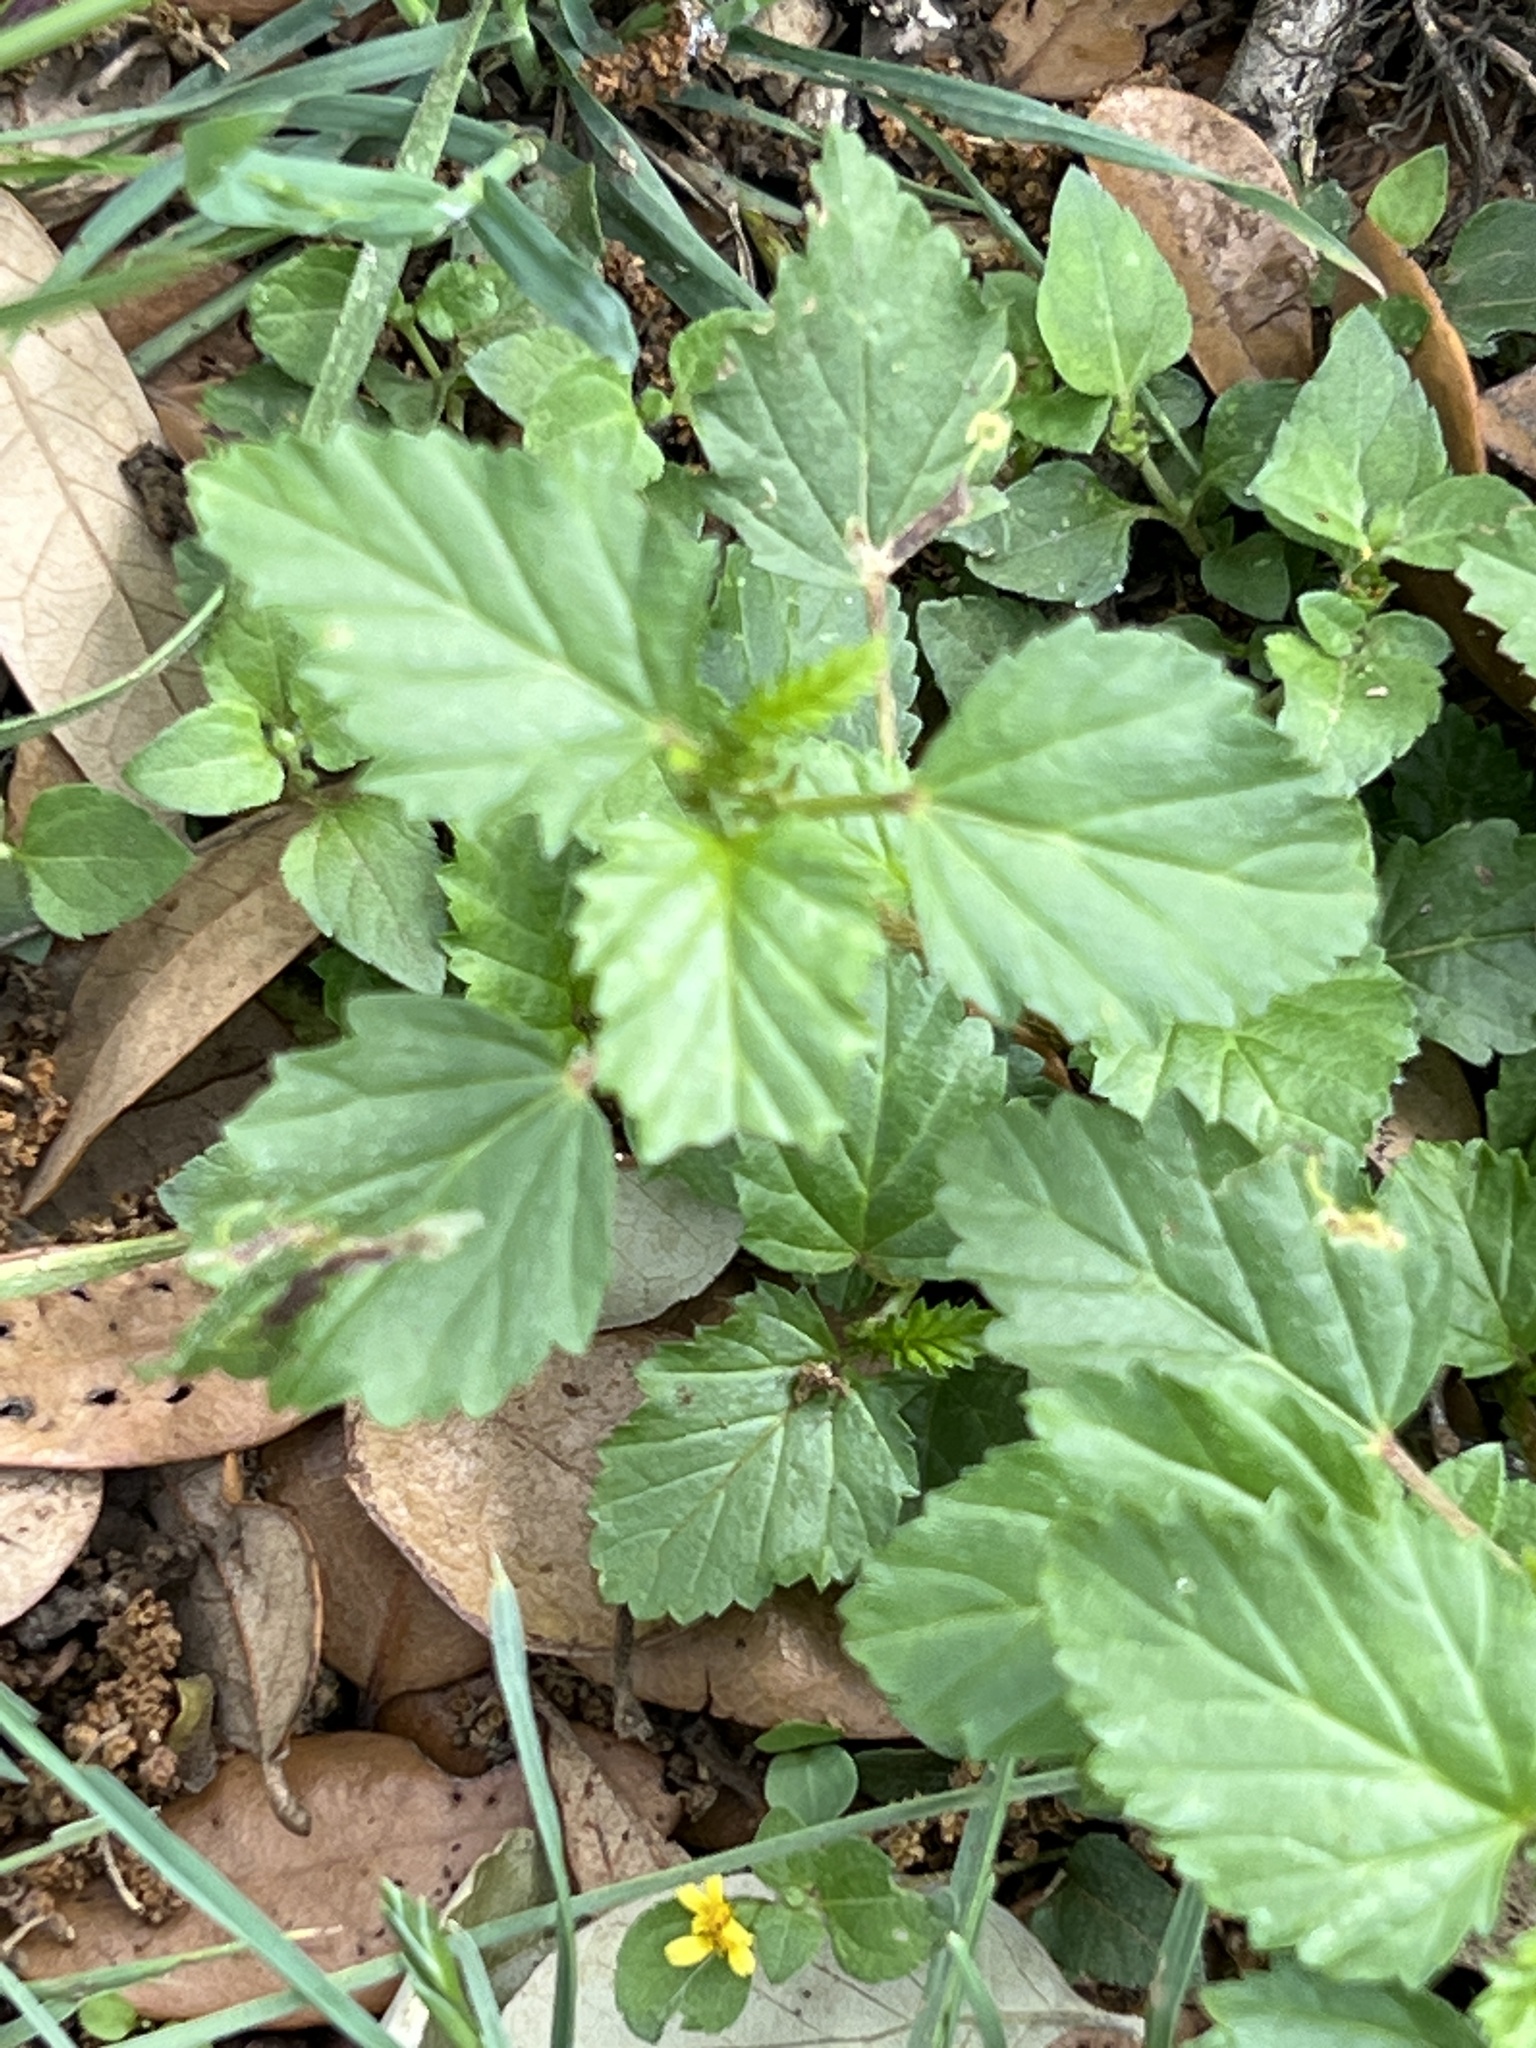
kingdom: Plantae
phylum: Tracheophyta
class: Magnoliopsida
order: Malvales
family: Malvaceae
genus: Malvastrum
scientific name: Malvastrum coromandelianum
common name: Threelobe false mallow
